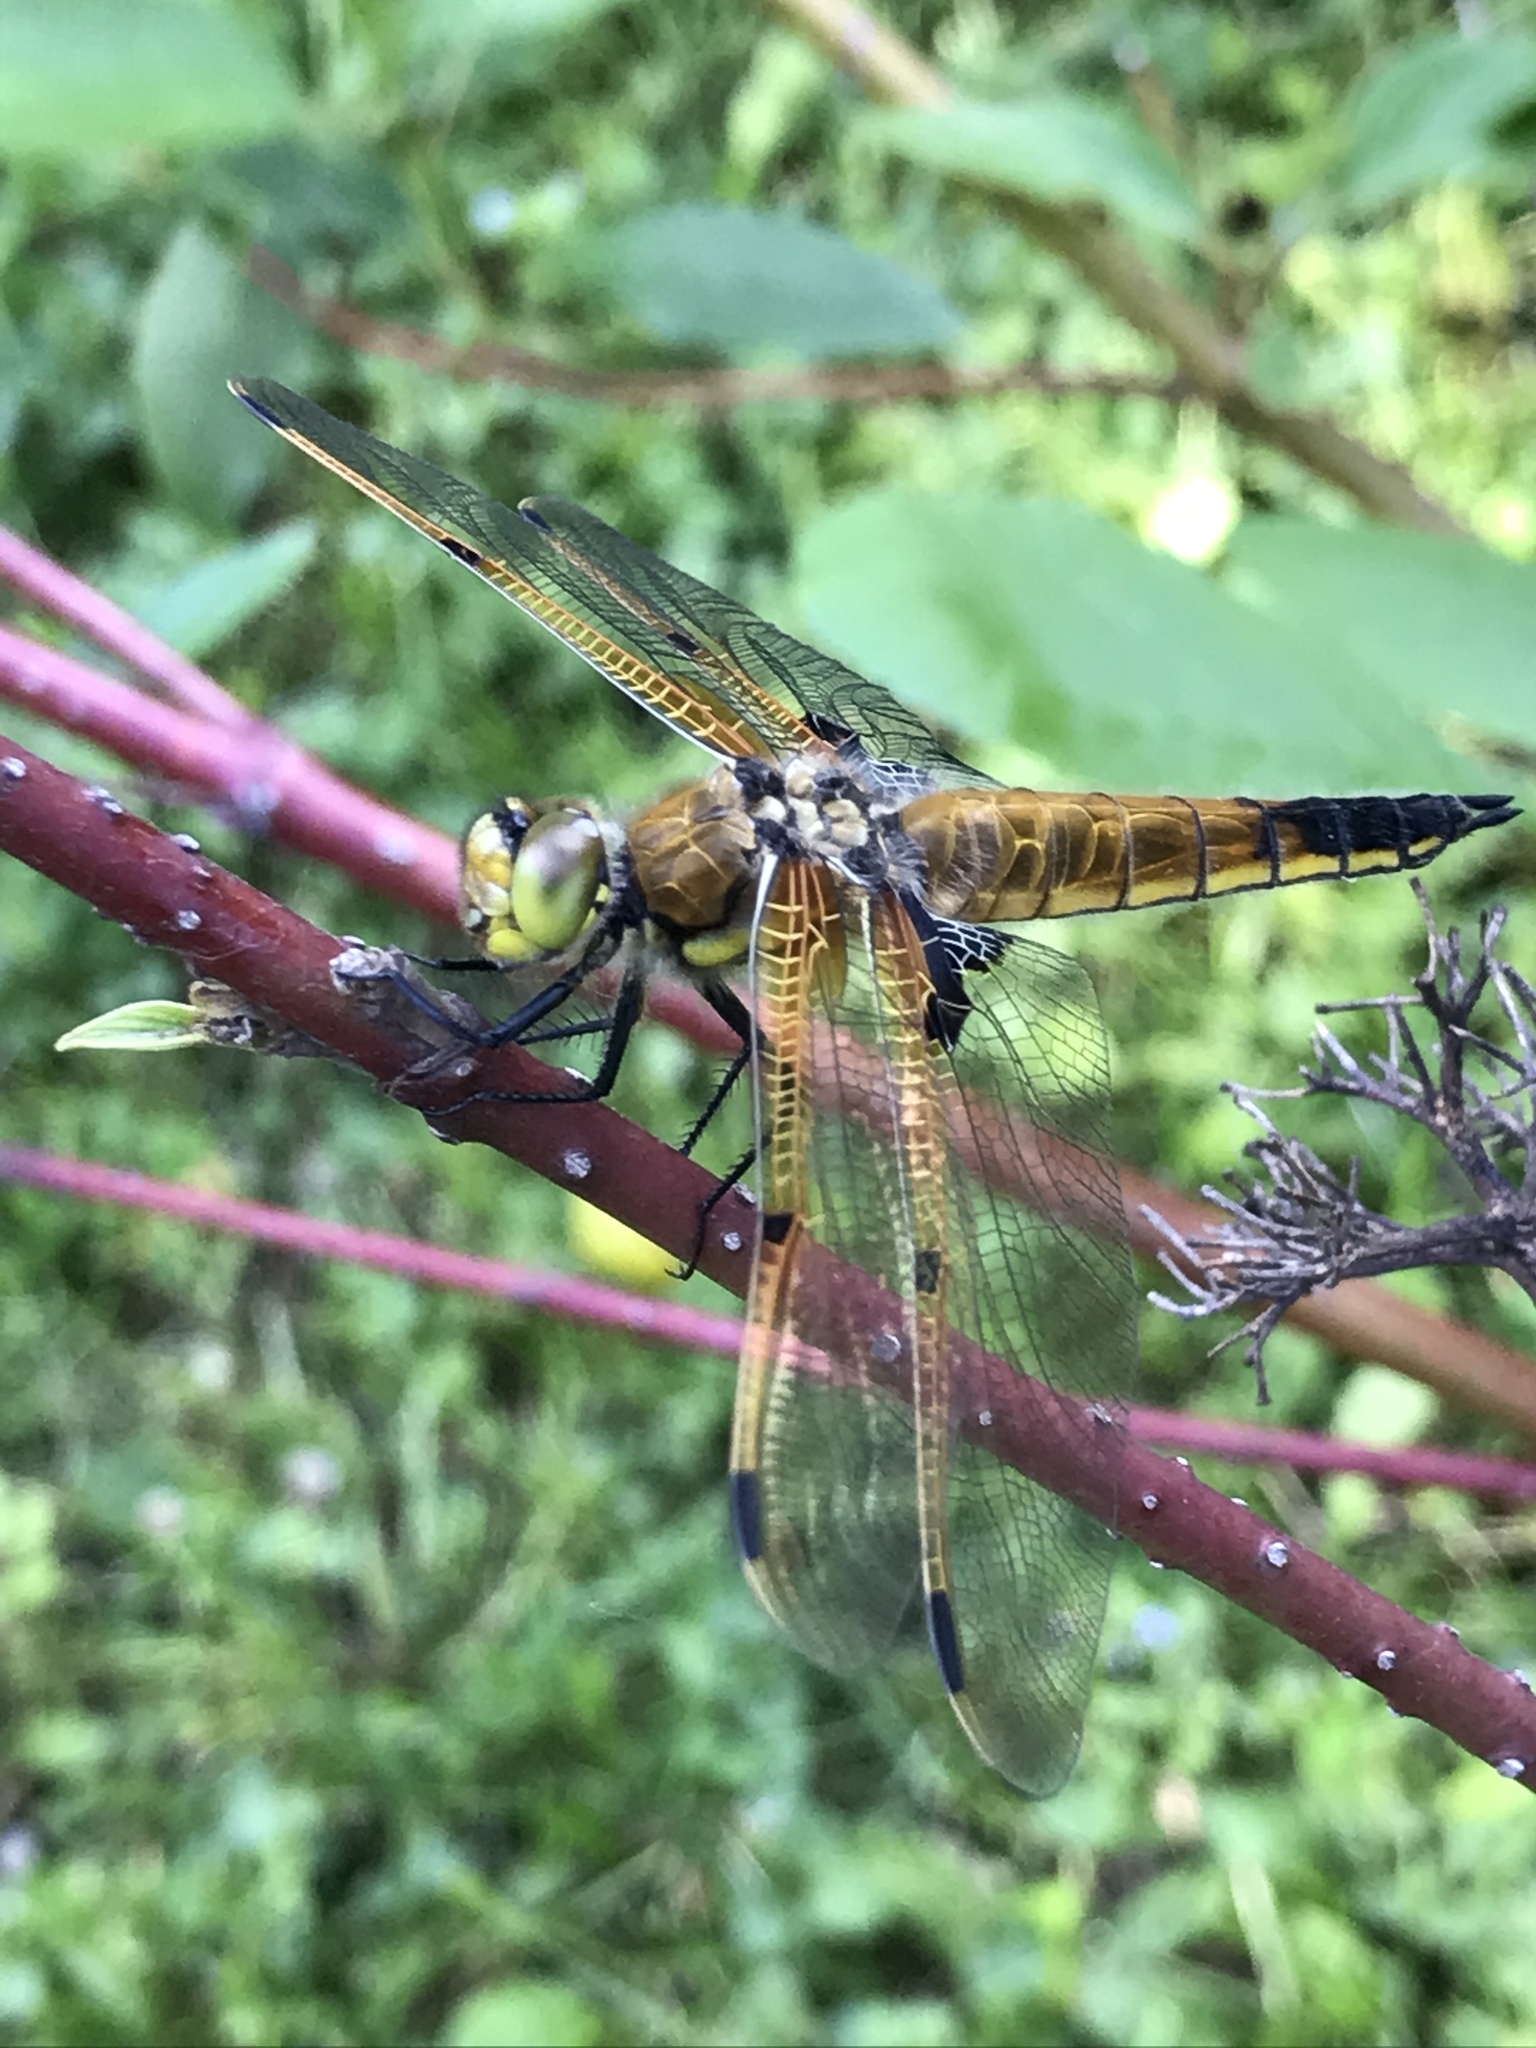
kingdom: Animalia
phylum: Arthropoda
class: Insecta
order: Odonata
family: Libellulidae
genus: Libellula
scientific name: Libellula quadrimaculata
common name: Four-spotted chaser
